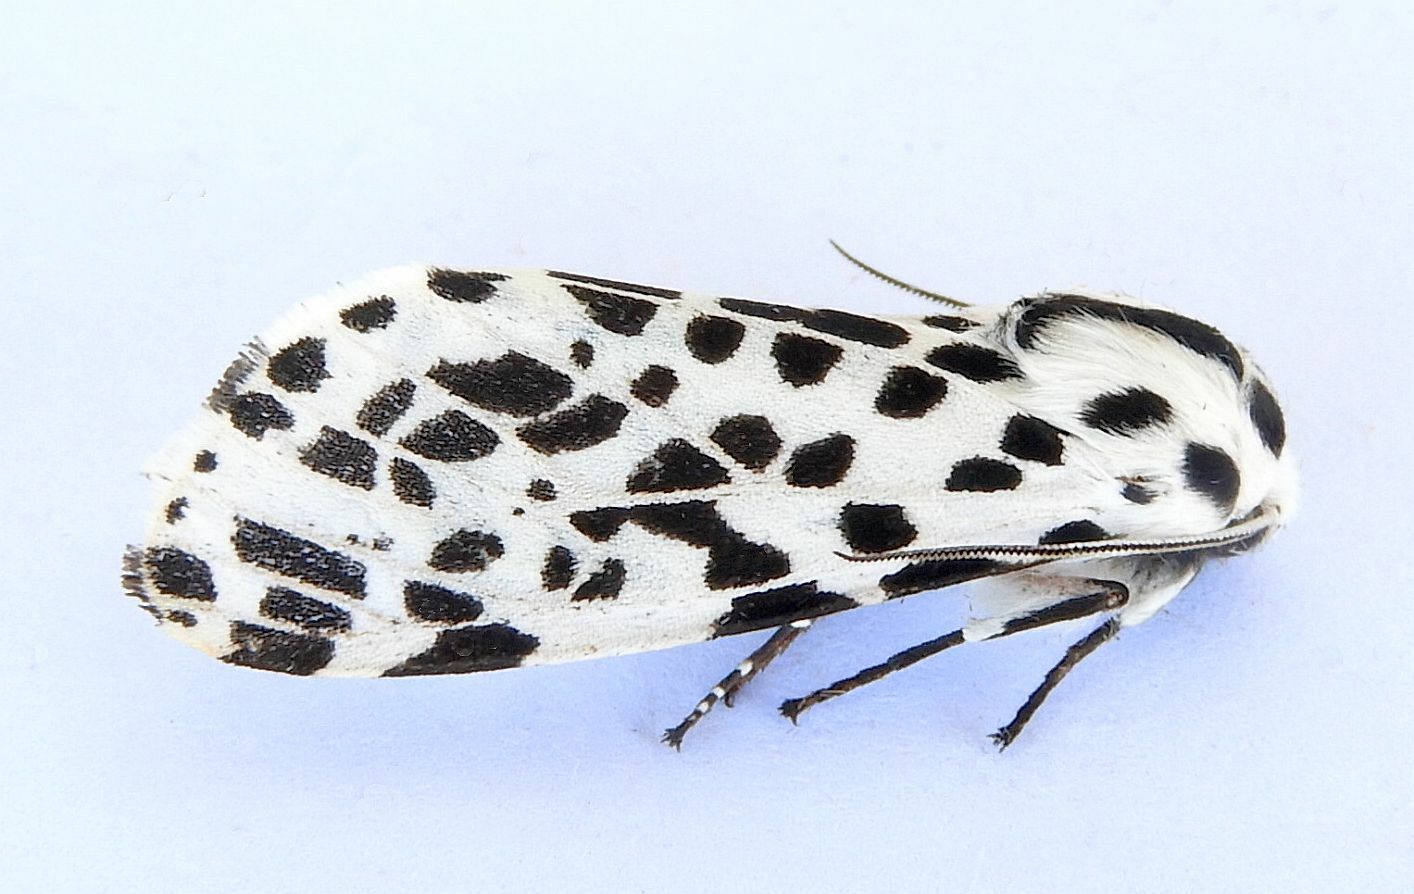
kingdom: Animalia
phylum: Arthropoda
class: Insecta
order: Lepidoptera
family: Erebidae
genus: Hypercompe
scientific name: Hypercompe permaculata
